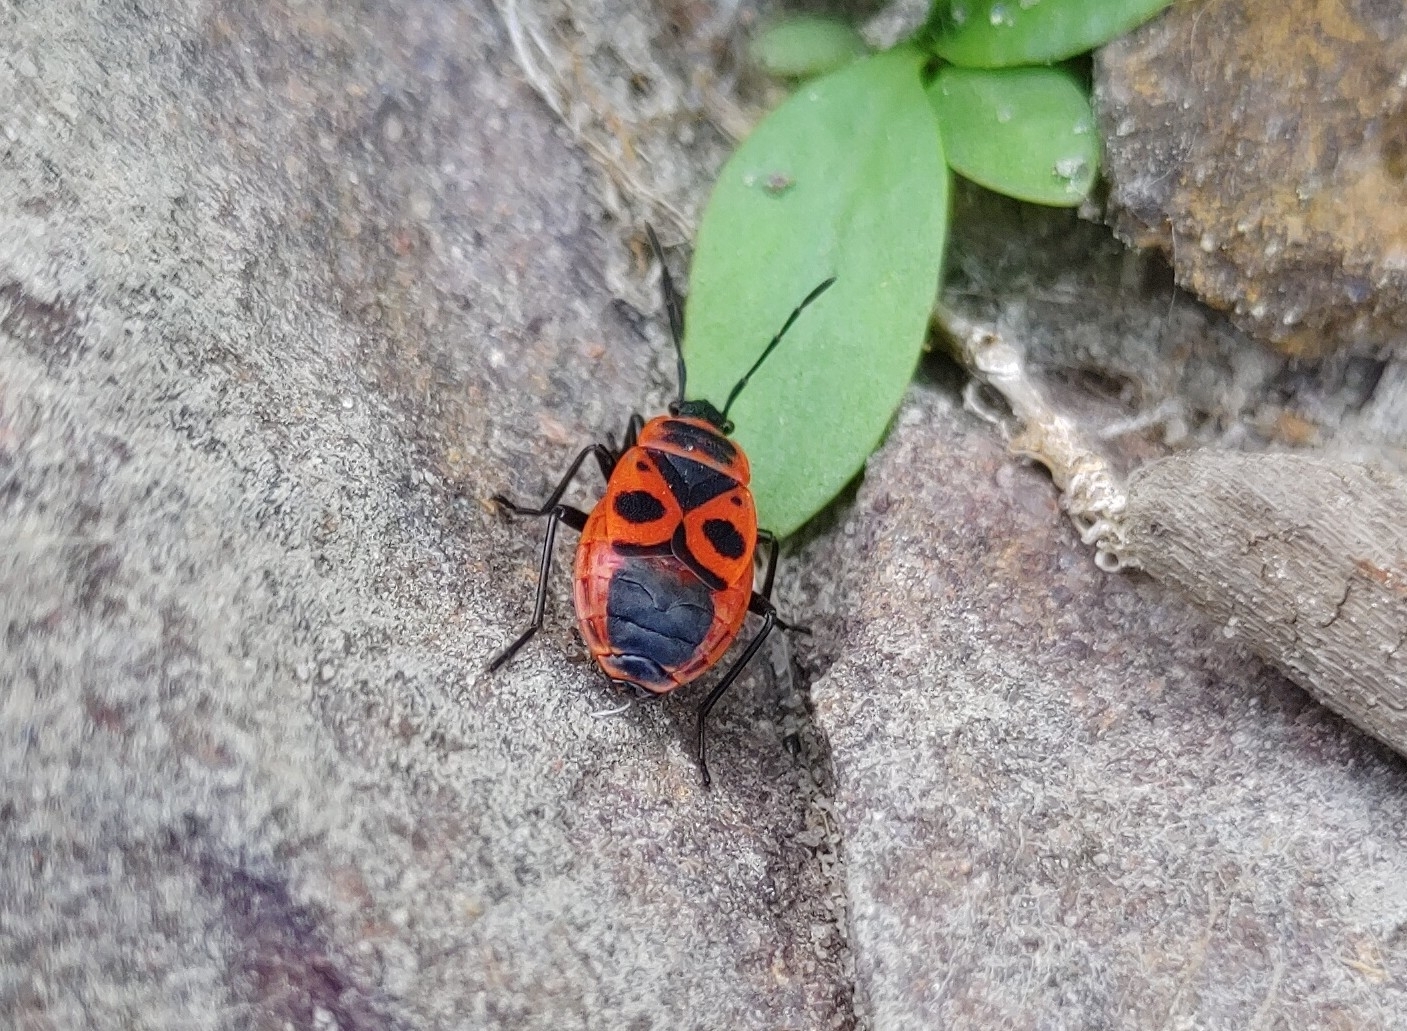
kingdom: Animalia
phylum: Arthropoda
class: Insecta
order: Hemiptera
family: Pyrrhocoridae
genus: Pyrrhocoris
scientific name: Pyrrhocoris apterus
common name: Firebug
